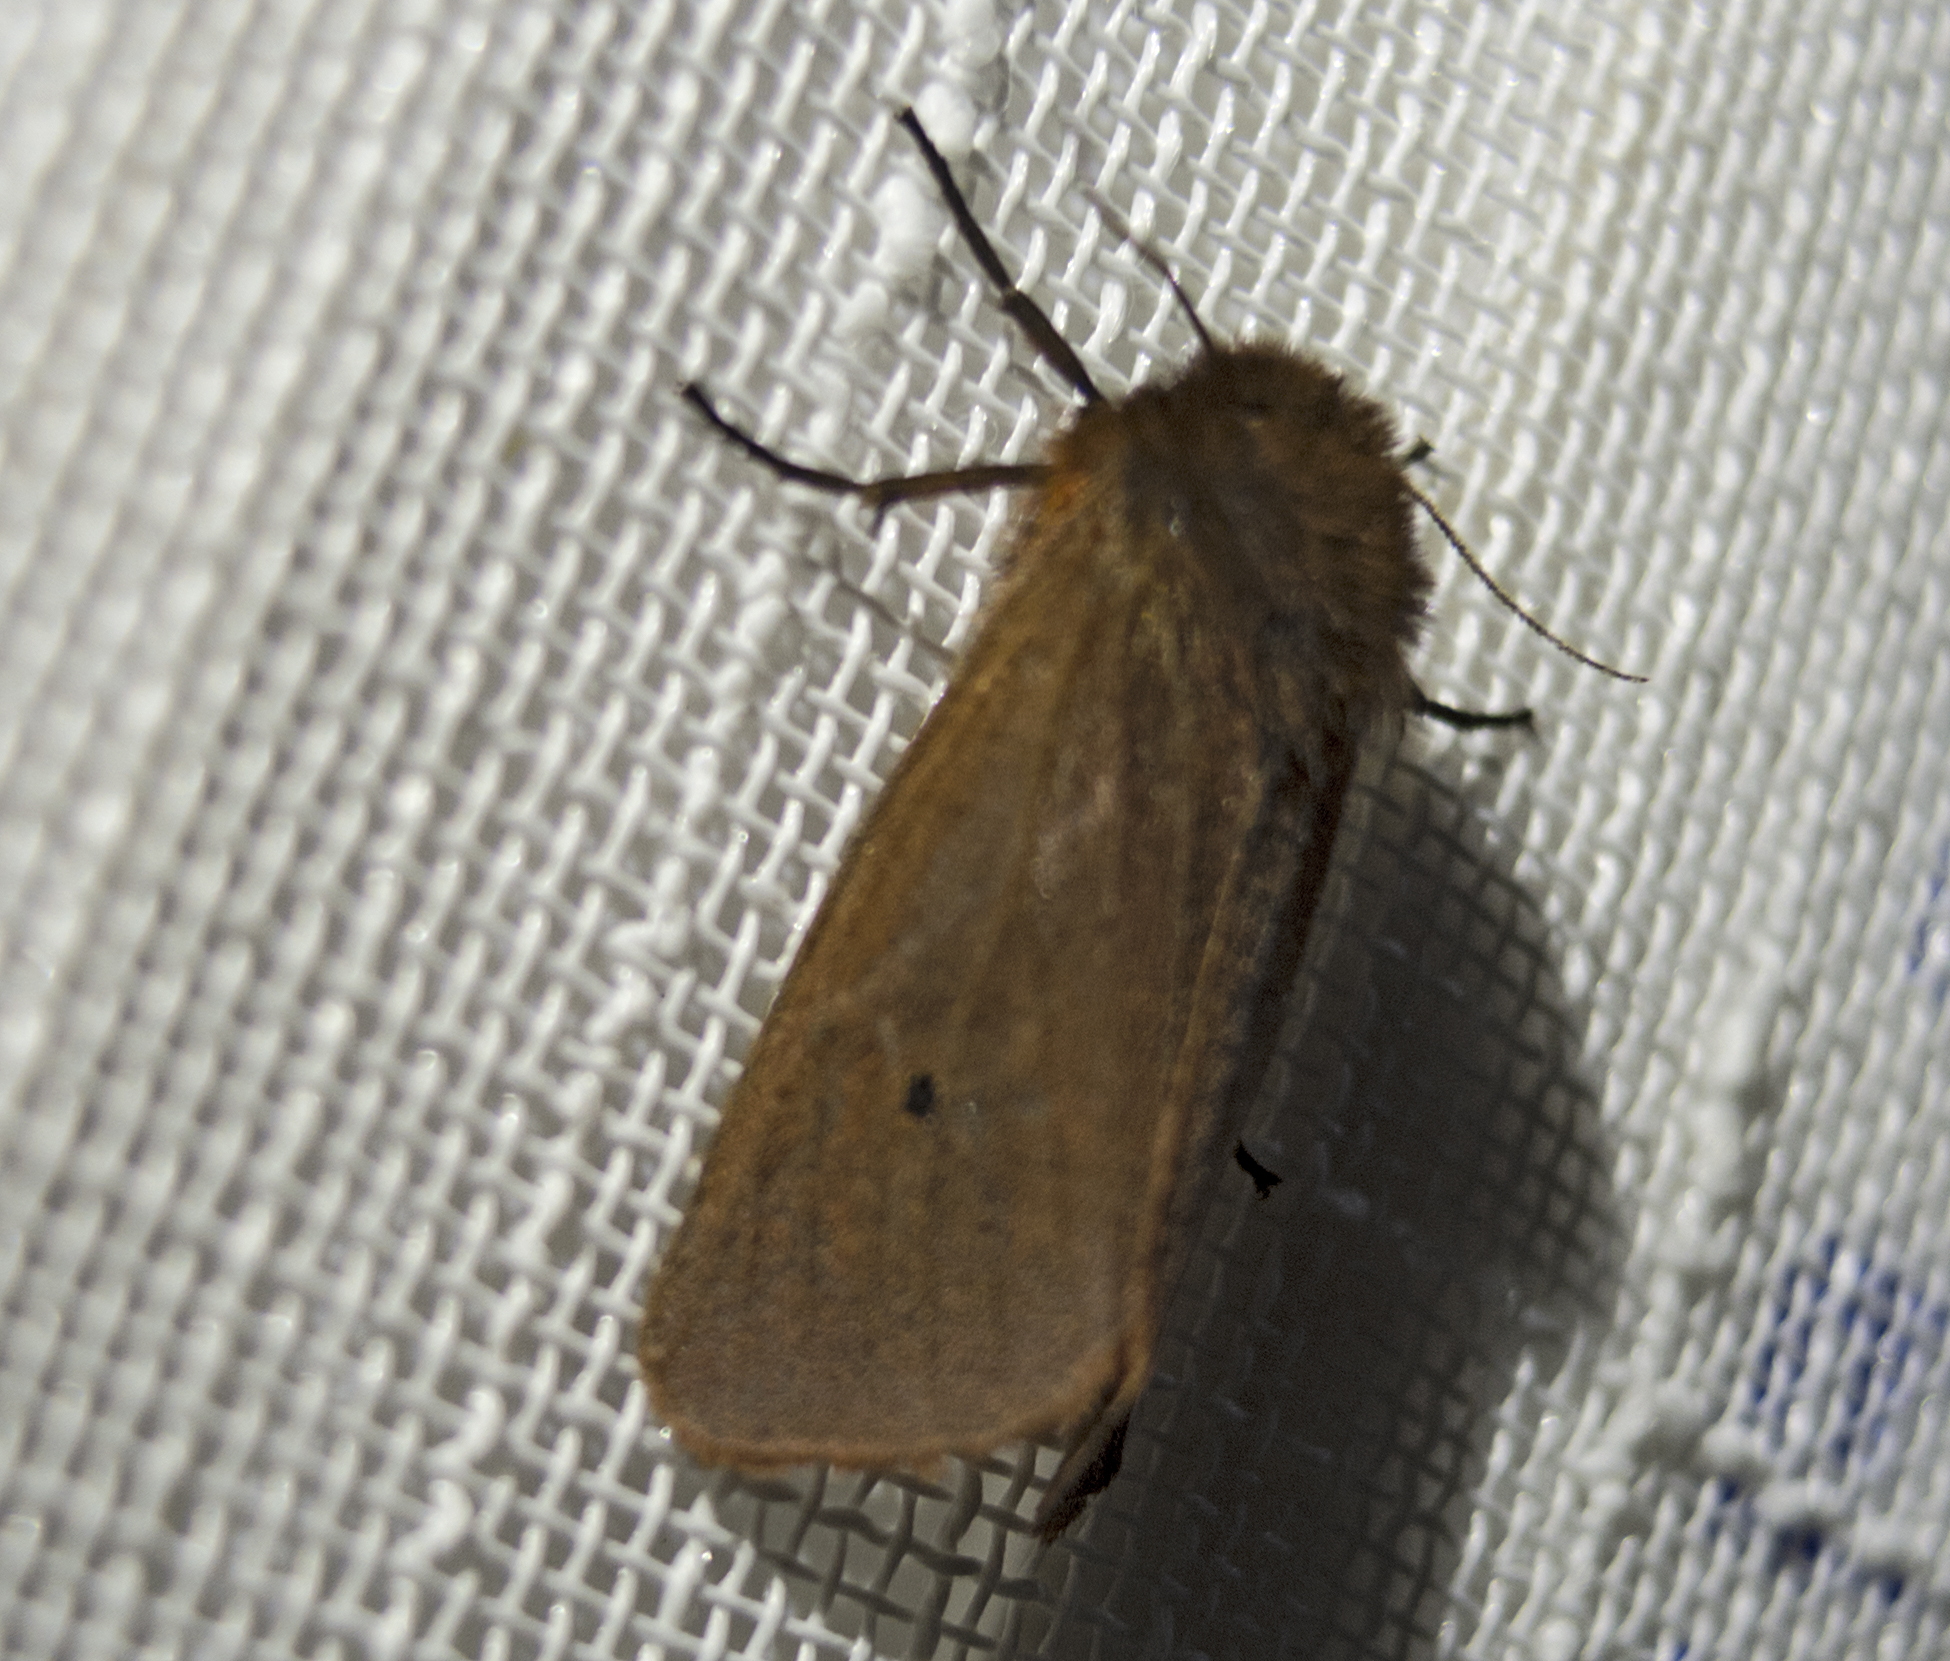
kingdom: Animalia
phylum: Arthropoda
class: Insecta
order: Lepidoptera
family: Erebidae
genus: Phragmatobia
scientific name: Phragmatobia fuliginosa
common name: Ruby tiger
